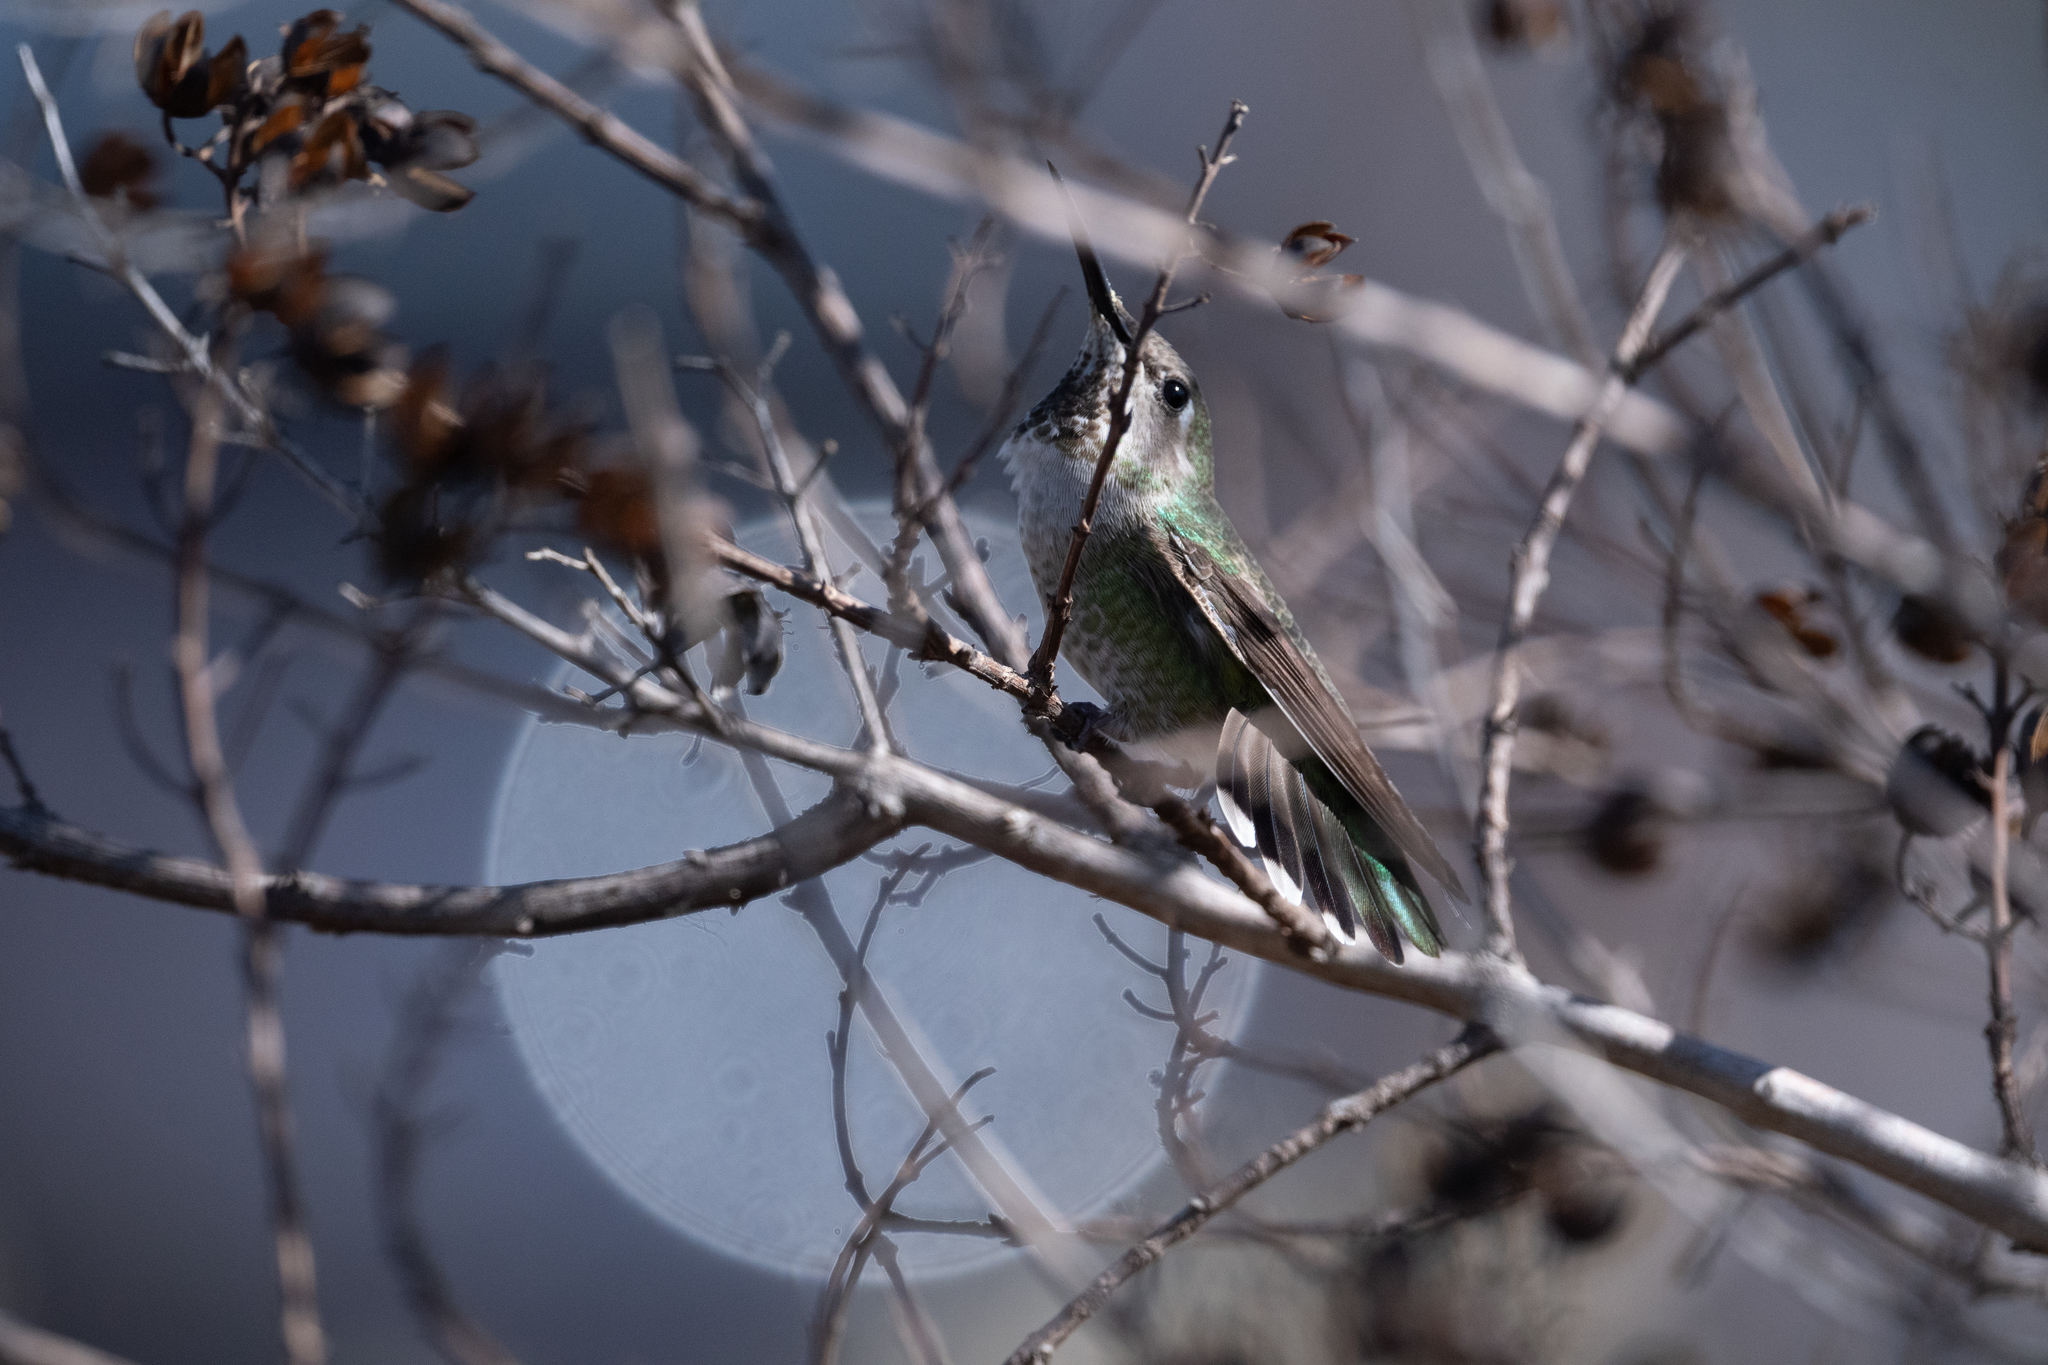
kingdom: Animalia
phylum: Chordata
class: Aves
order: Apodiformes
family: Trochilidae
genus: Calypte
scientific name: Calypte anna
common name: Anna's hummingbird
